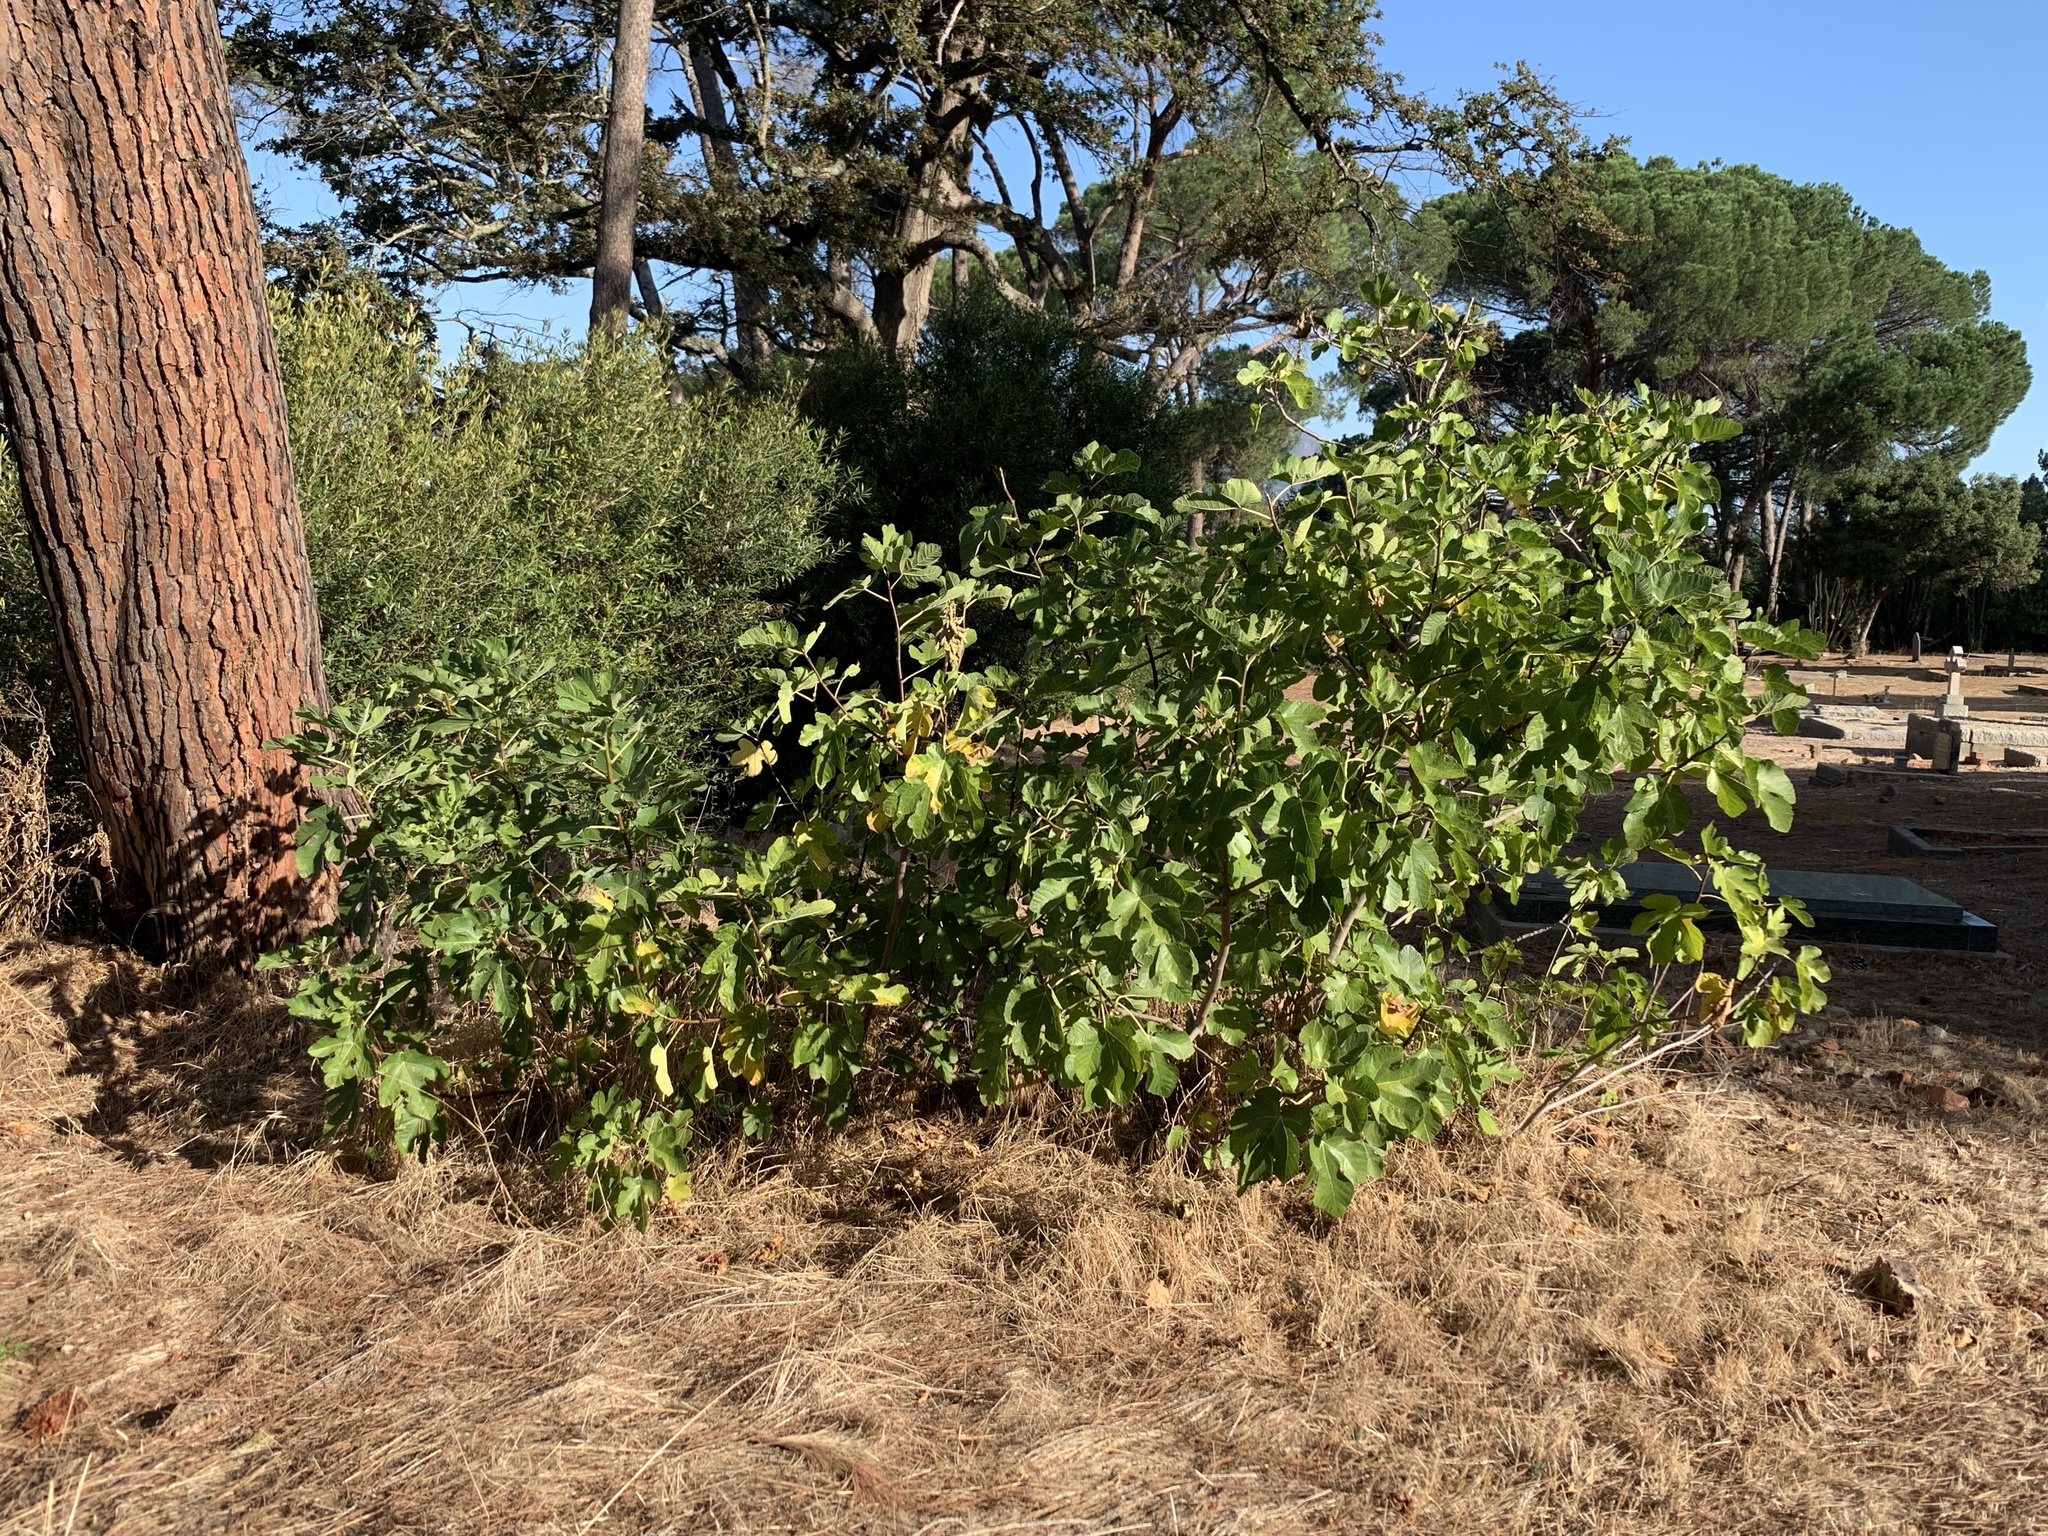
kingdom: Plantae
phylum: Tracheophyta
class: Magnoliopsida
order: Rosales
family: Moraceae
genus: Ficus
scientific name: Ficus carica
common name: Fig
